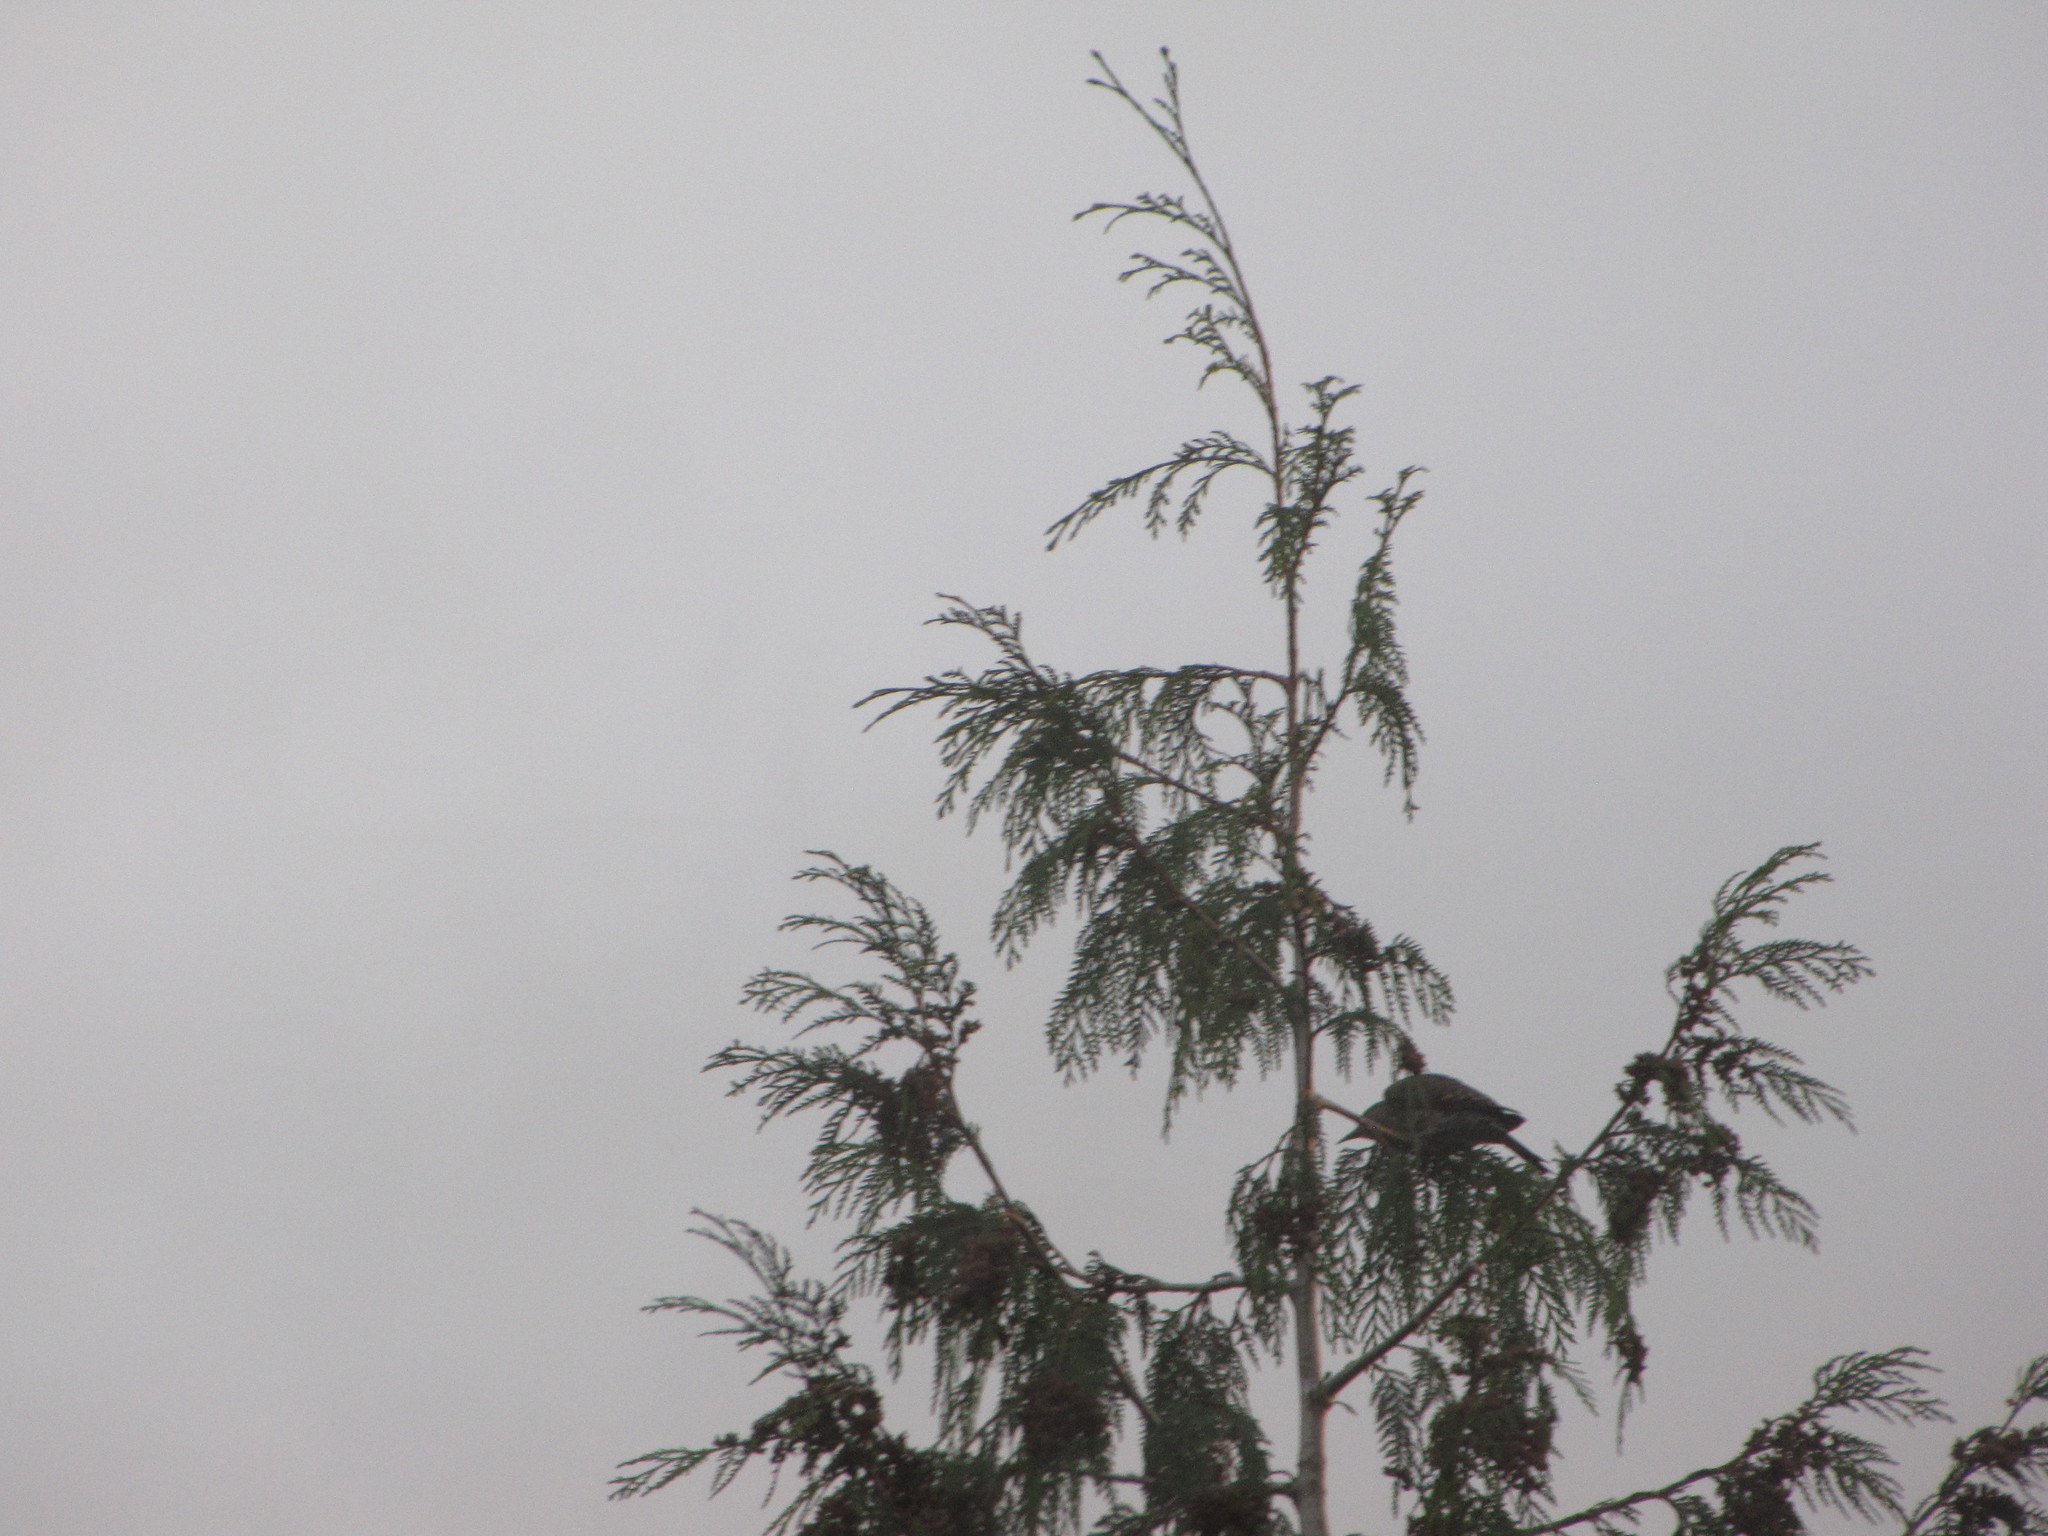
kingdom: Animalia
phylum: Chordata
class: Aves
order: Piciformes
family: Picidae
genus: Colaptes
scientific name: Colaptes auratus
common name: Northern flicker
